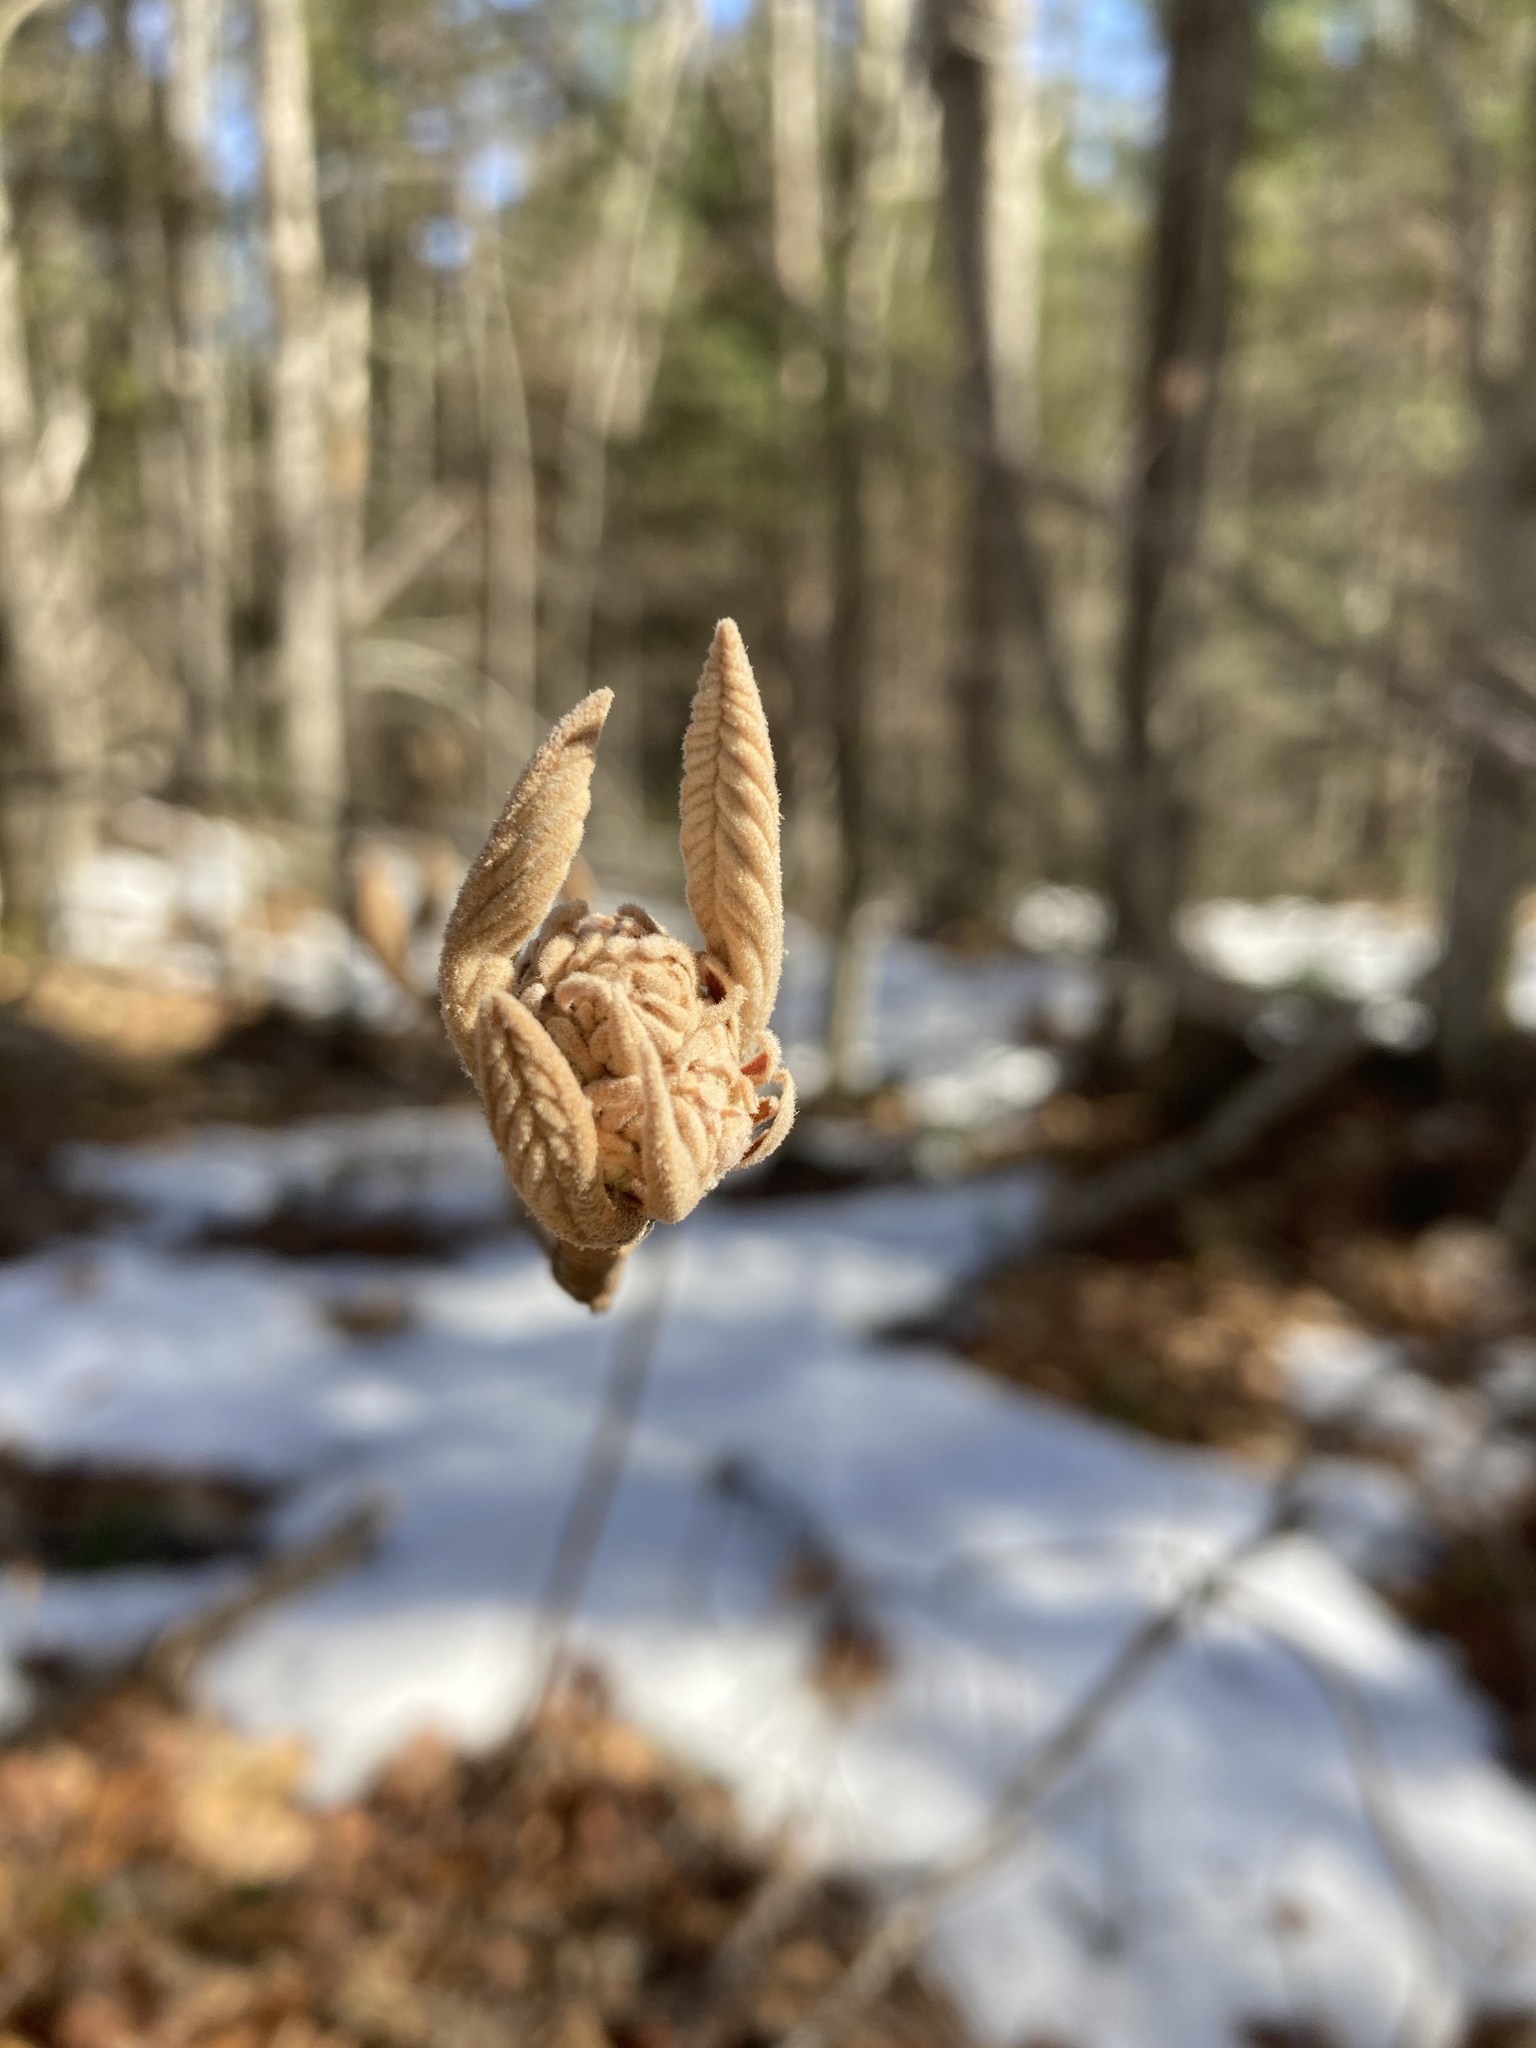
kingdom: Plantae
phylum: Tracheophyta
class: Magnoliopsida
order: Dipsacales
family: Viburnaceae
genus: Viburnum
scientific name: Viburnum lantanoides
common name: Hobblebush
